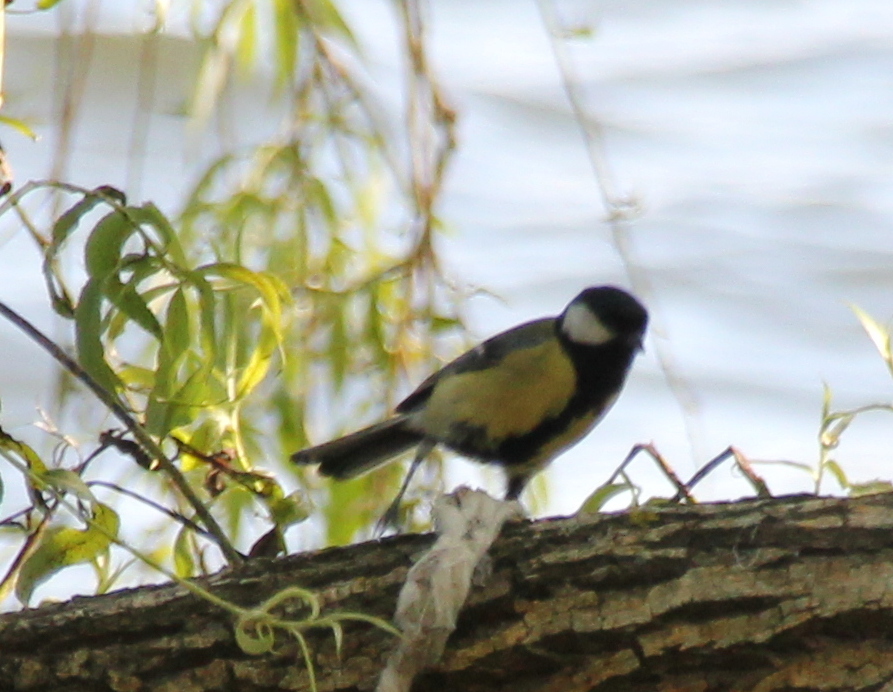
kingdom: Animalia
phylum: Chordata
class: Aves
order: Passeriformes
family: Paridae
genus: Parus
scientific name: Parus major
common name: Great tit
